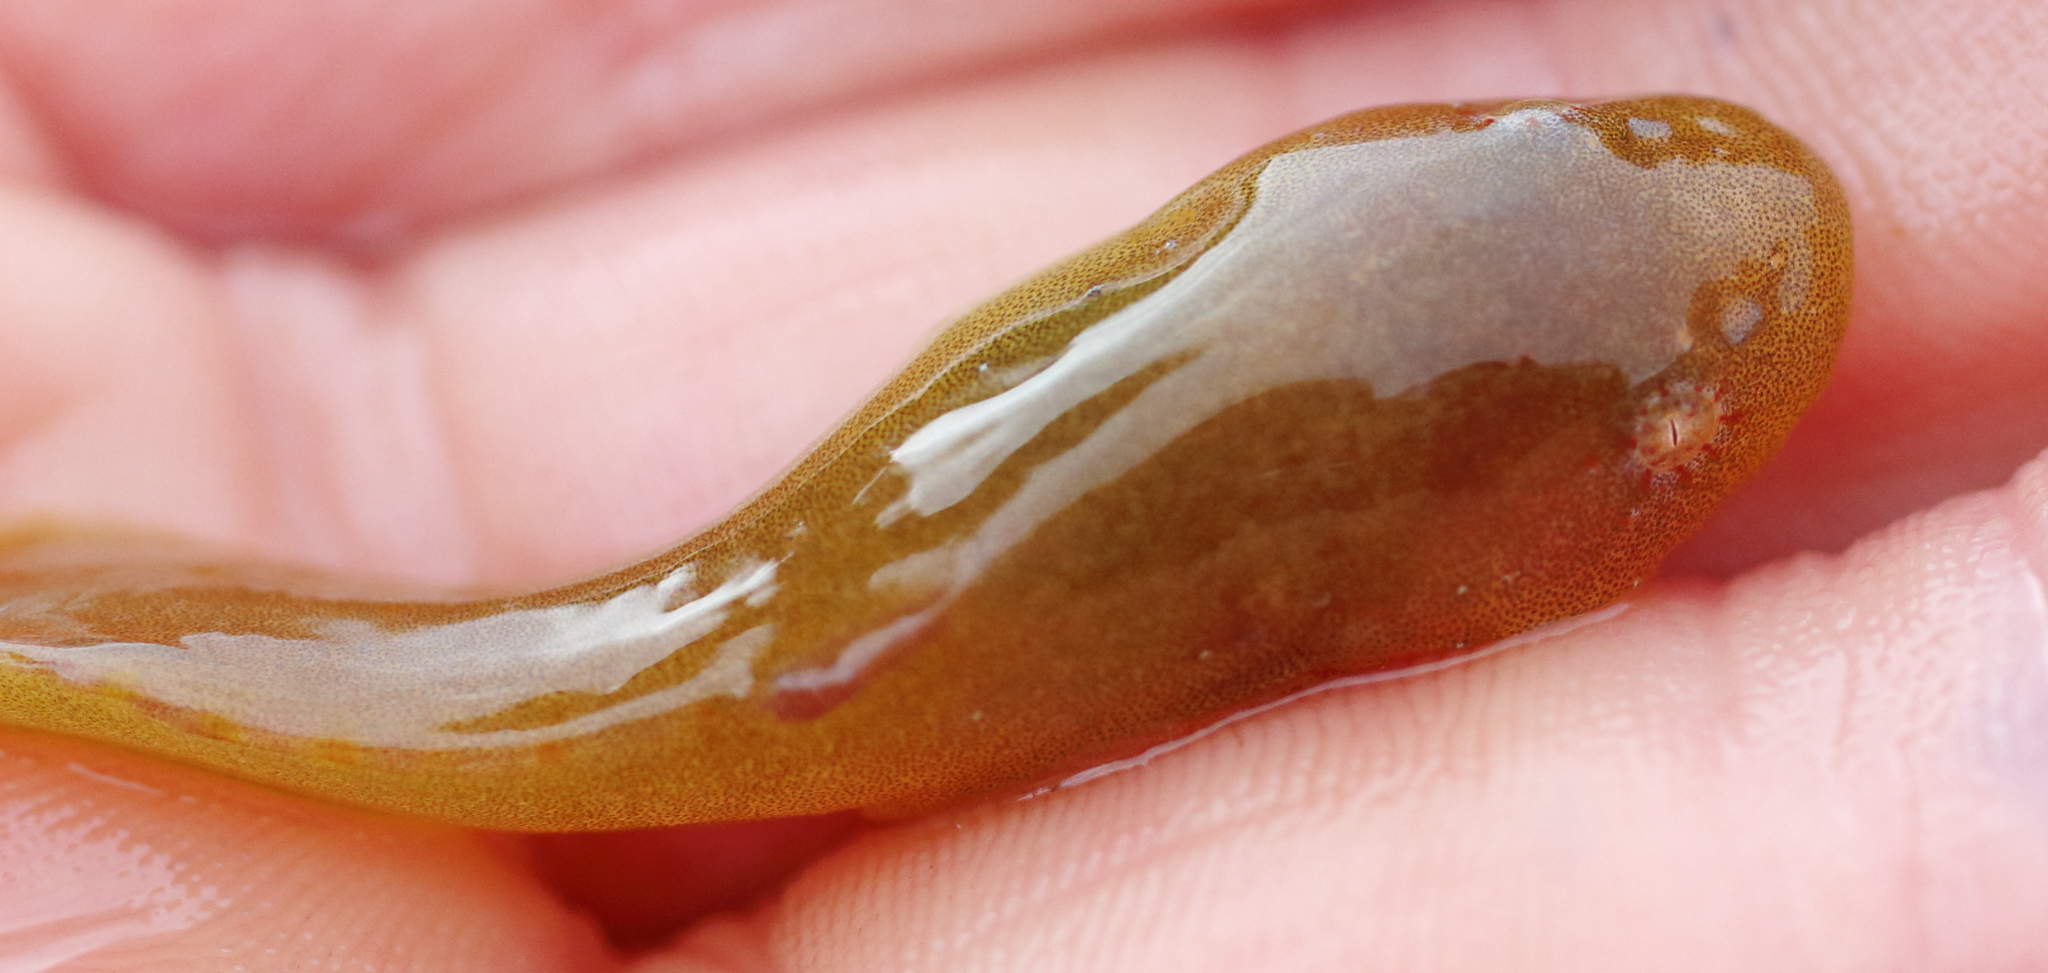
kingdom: Animalia
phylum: Chordata
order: Scorpaeniformes
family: Liparidae
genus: Liparis
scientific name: Liparis florae
